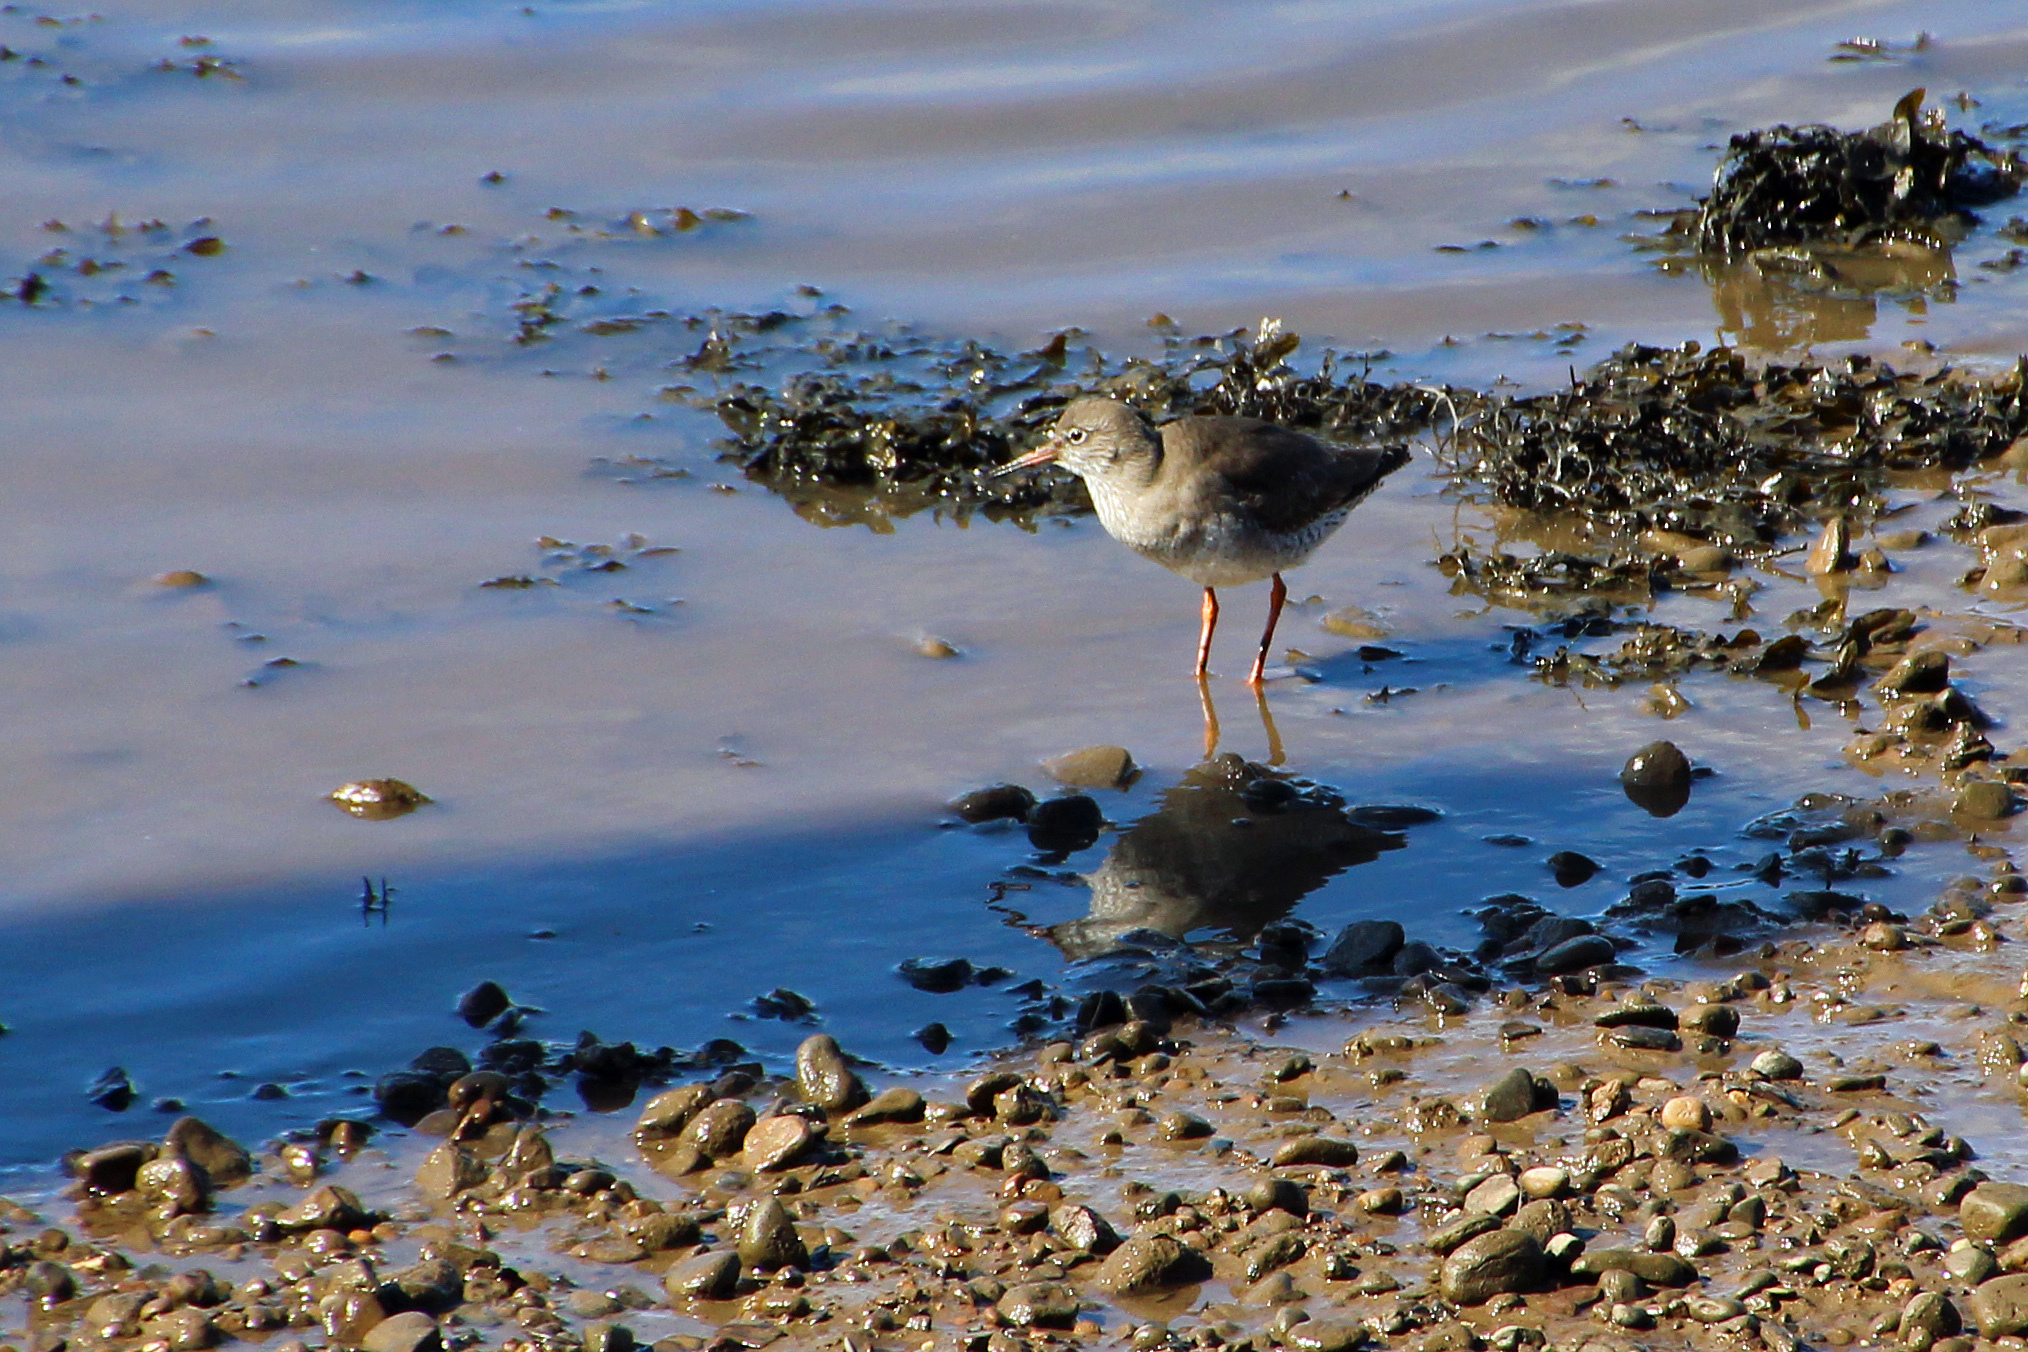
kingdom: Animalia
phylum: Chordata
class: Aves
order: Charadriiformes
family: Scolopacidae
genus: Tringa
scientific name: Tringa totanus
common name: Common redshank
